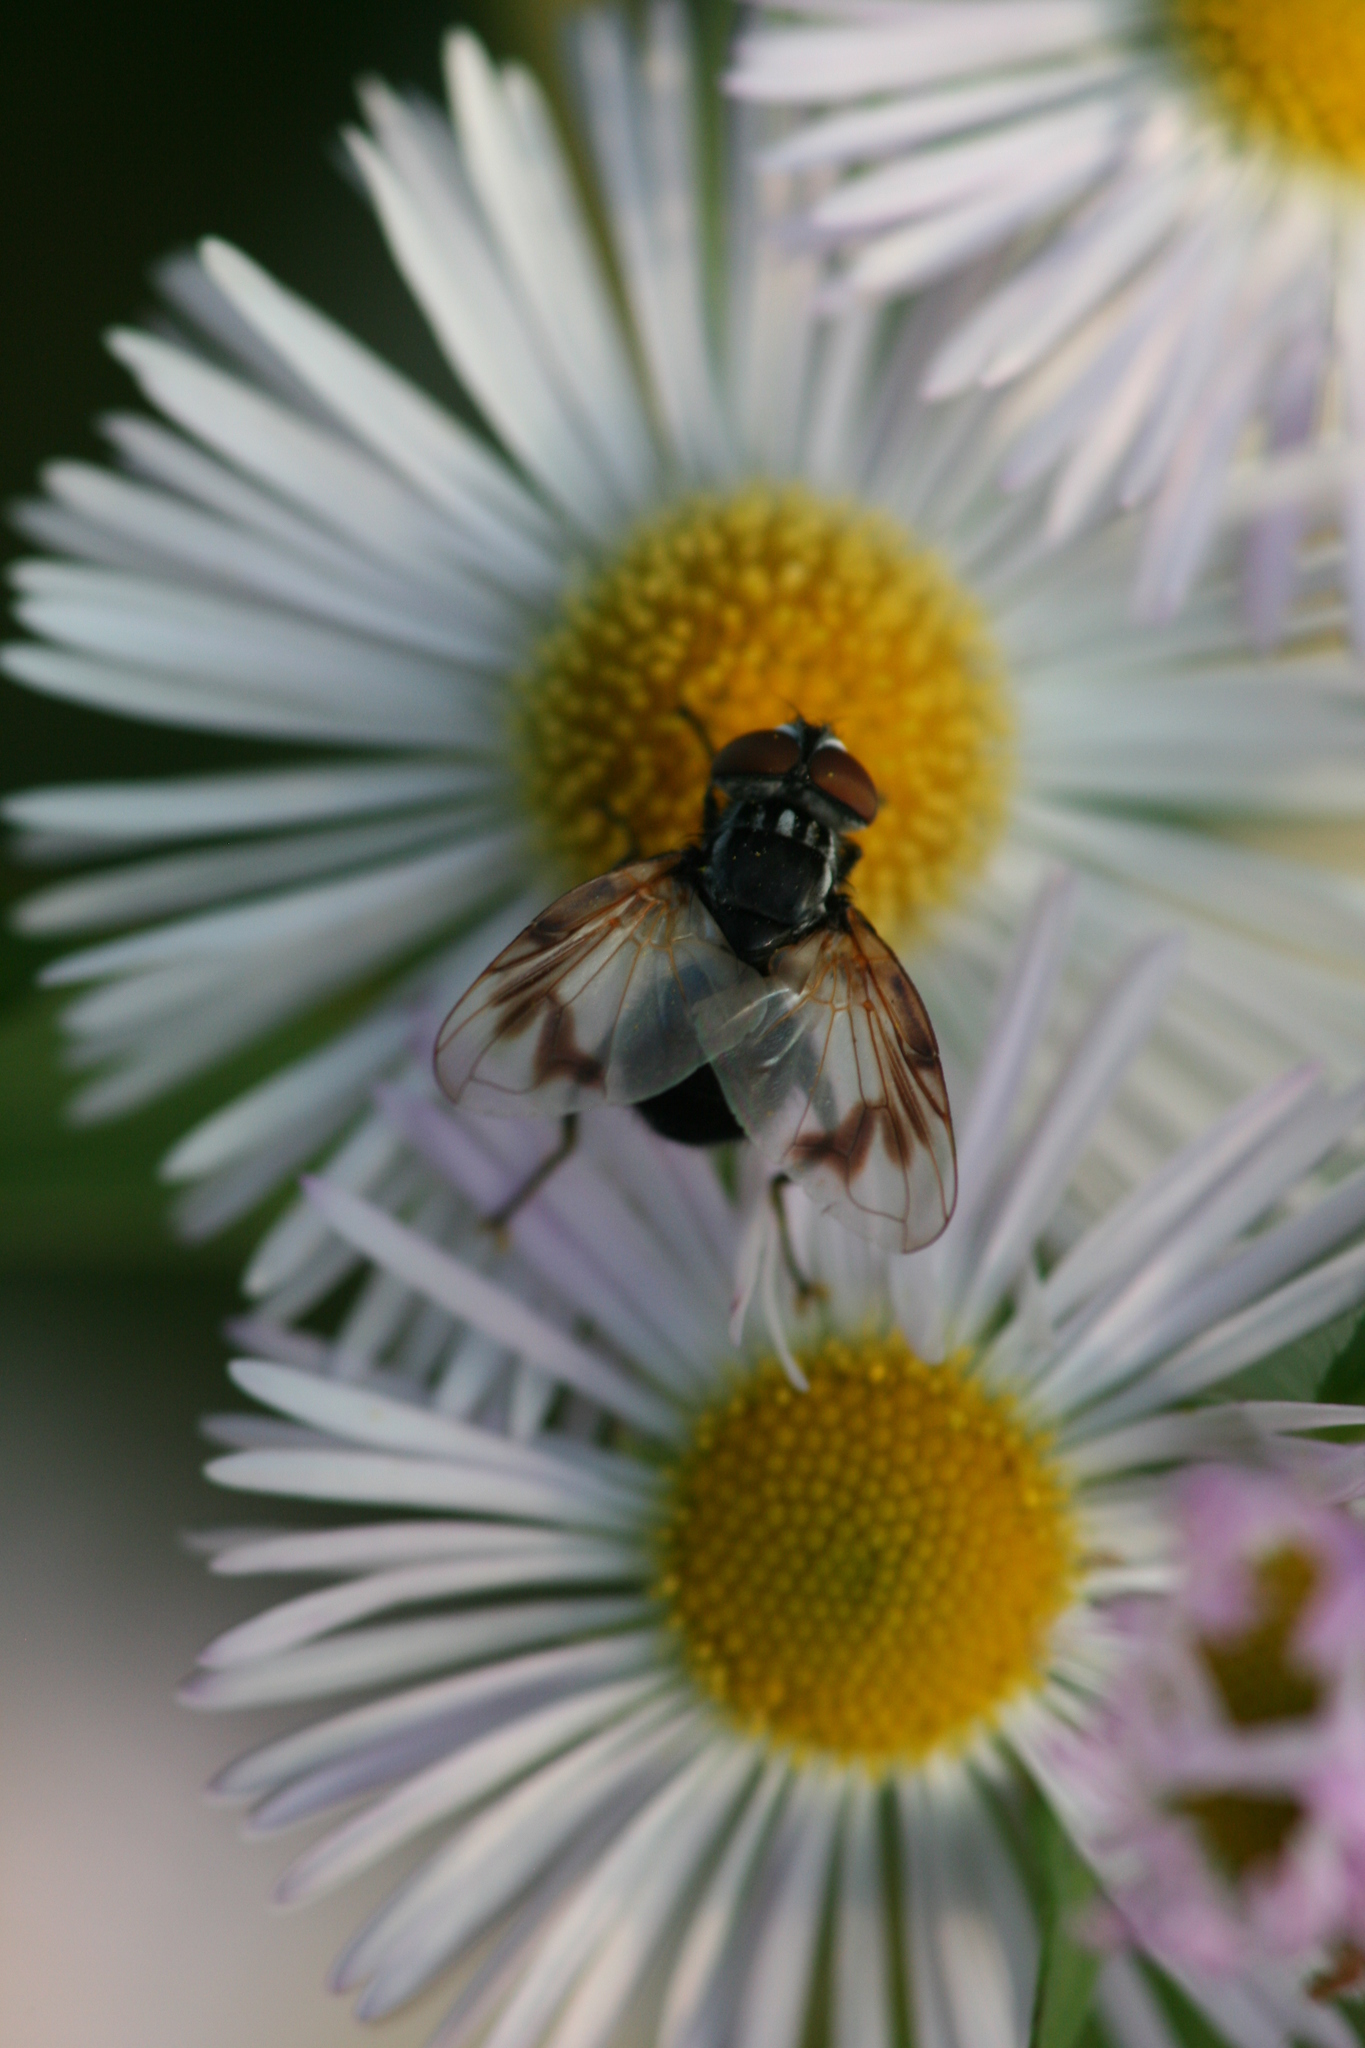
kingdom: Animalia
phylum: Arthropoda
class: Insecta
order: Diptera
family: Tachinidae
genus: Phasia
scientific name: Phasia obesa
